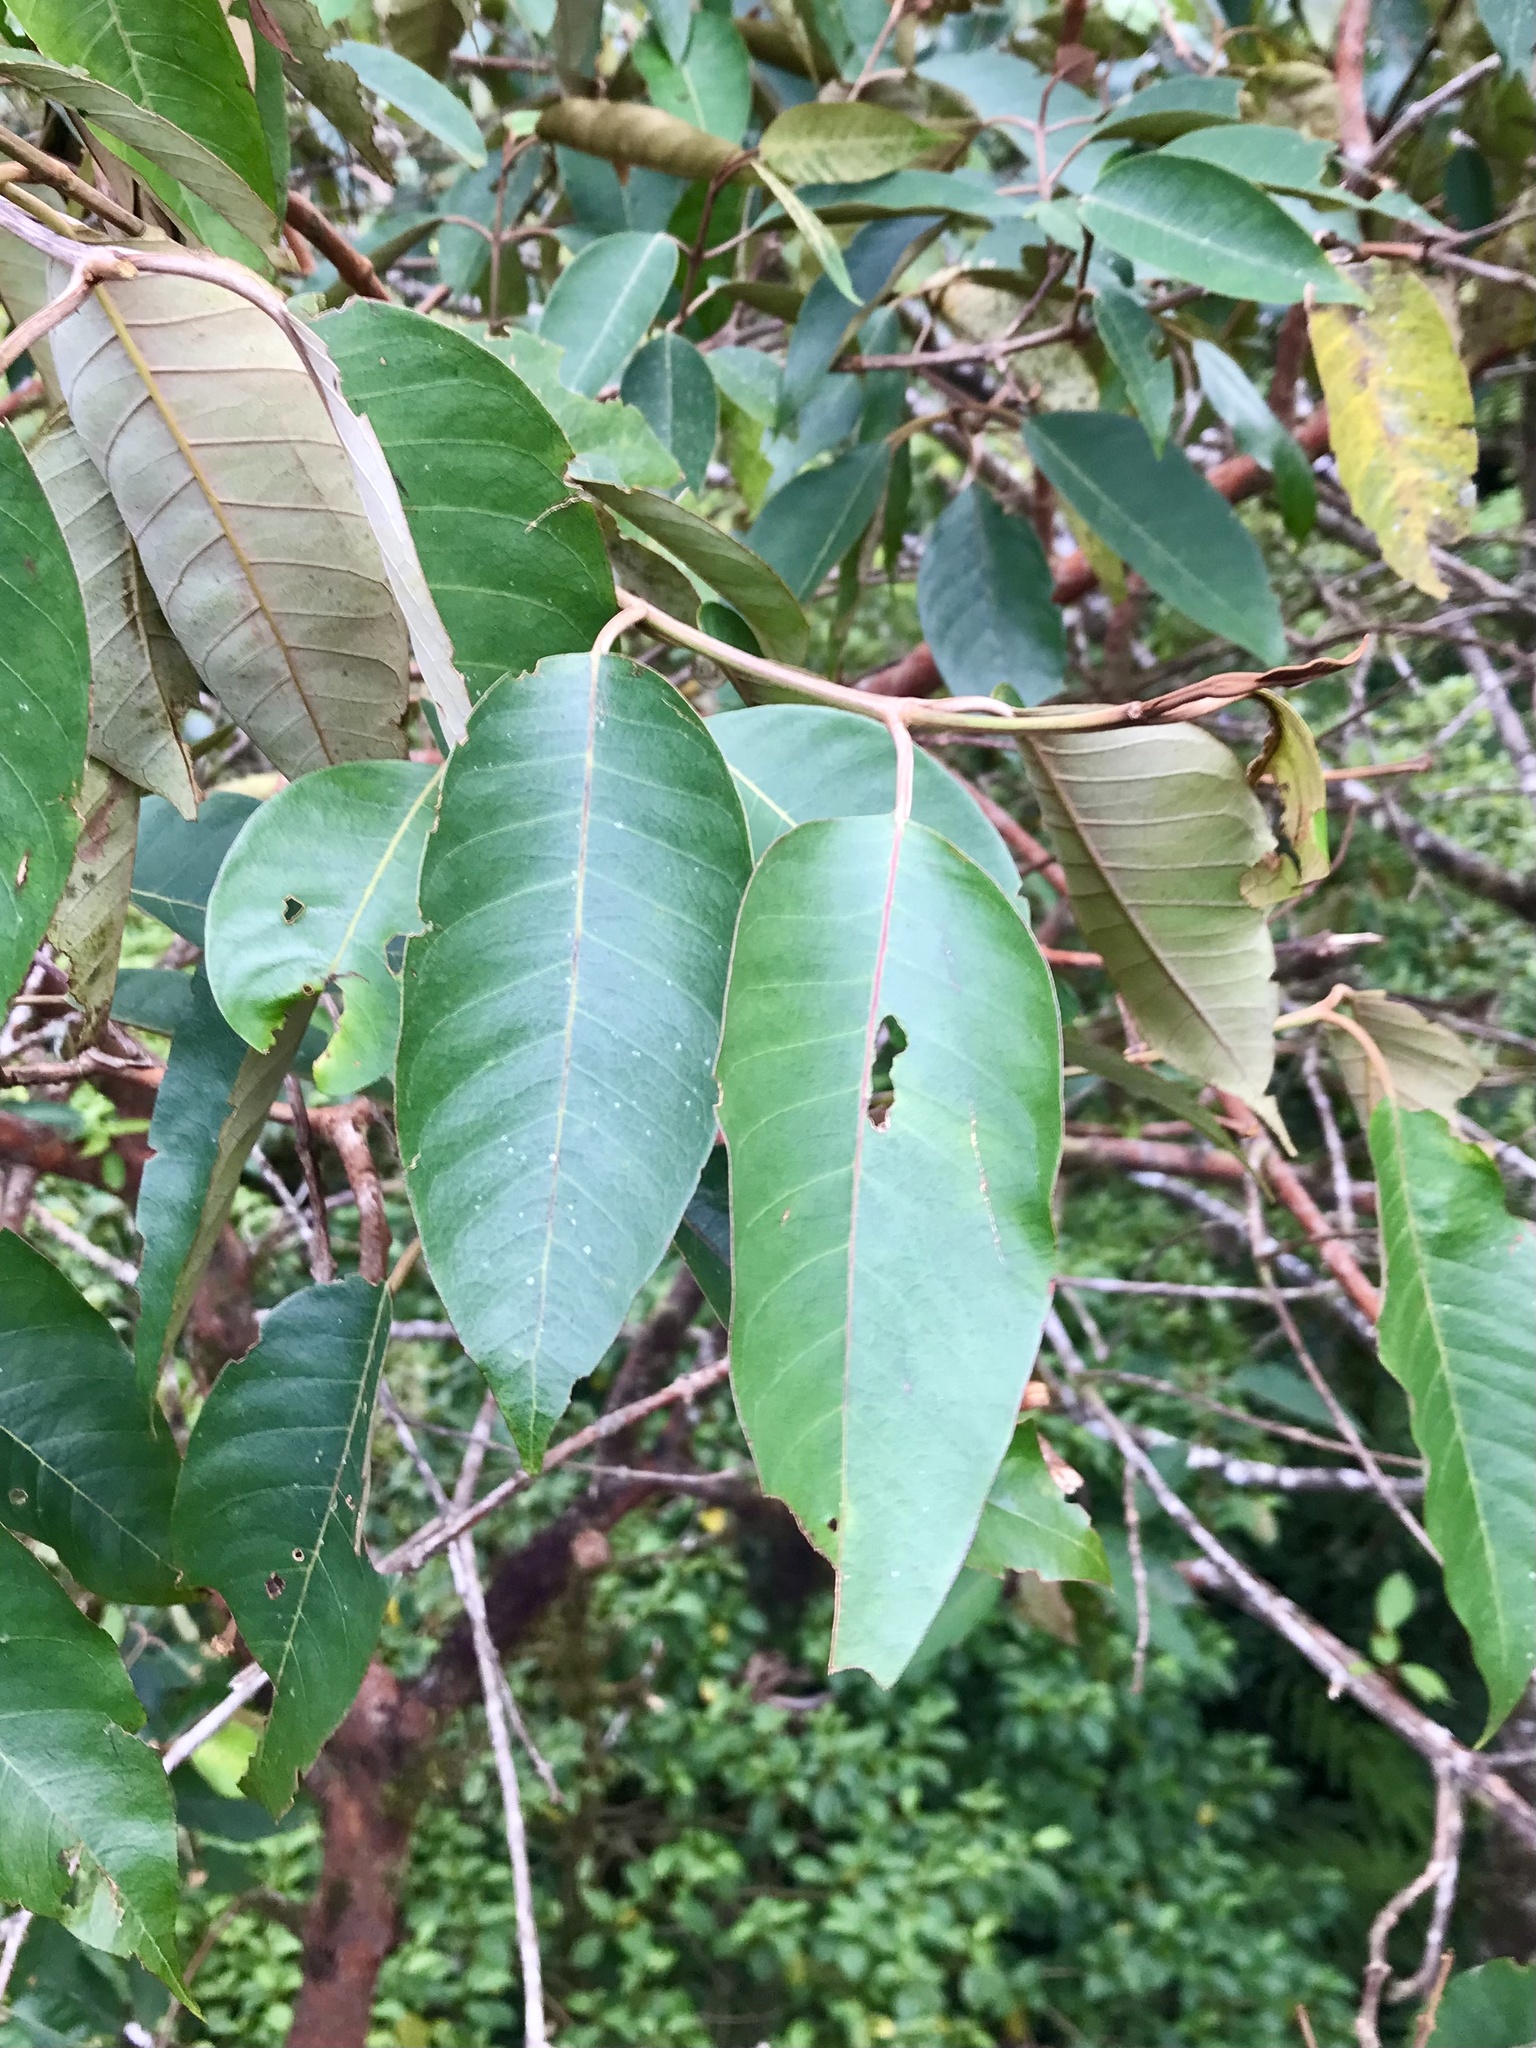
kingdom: Plantae
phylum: Tracheophyta
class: Magnoliopsida
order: Malpighiales
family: Hypericaceae
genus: Vismia
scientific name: Vismia baccifera
